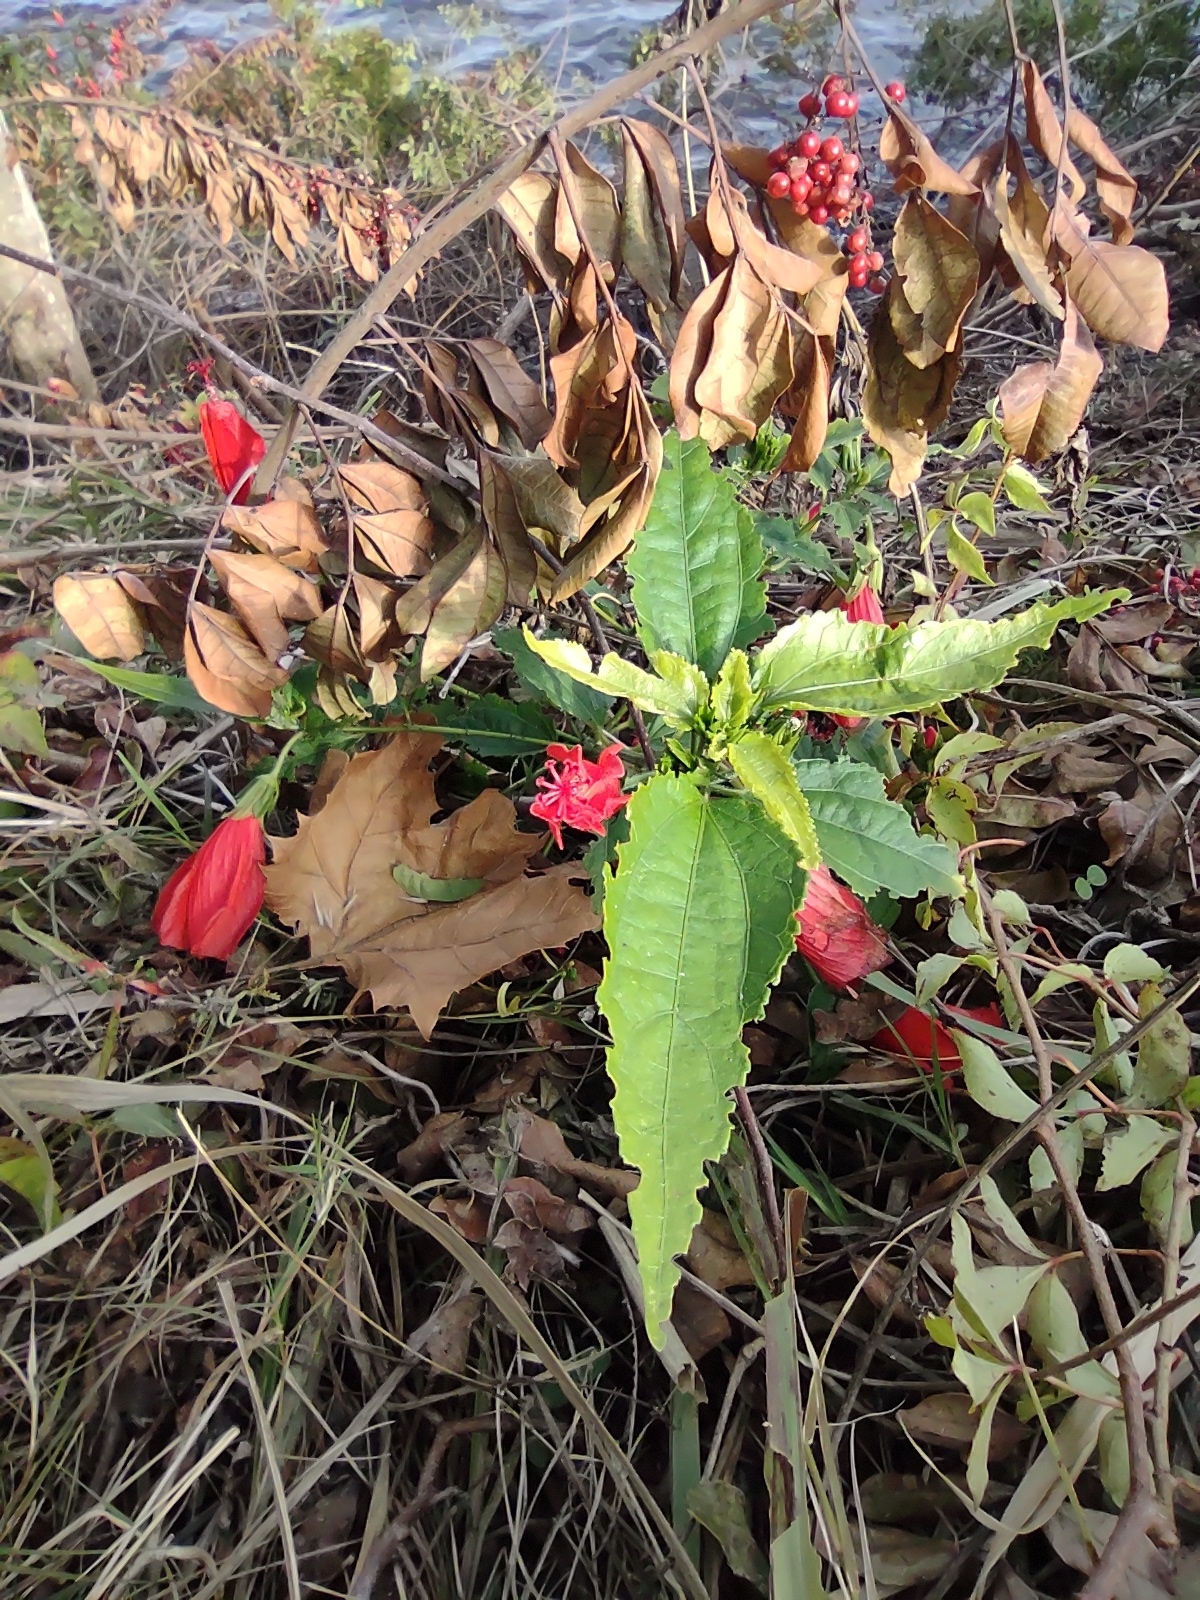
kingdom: Plantae
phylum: Tracheophyta
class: Magnoliopsida
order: Malvales
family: Malvaceae
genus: Malvaviscus
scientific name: Malvaviscus penduliflorus
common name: Mazapan
